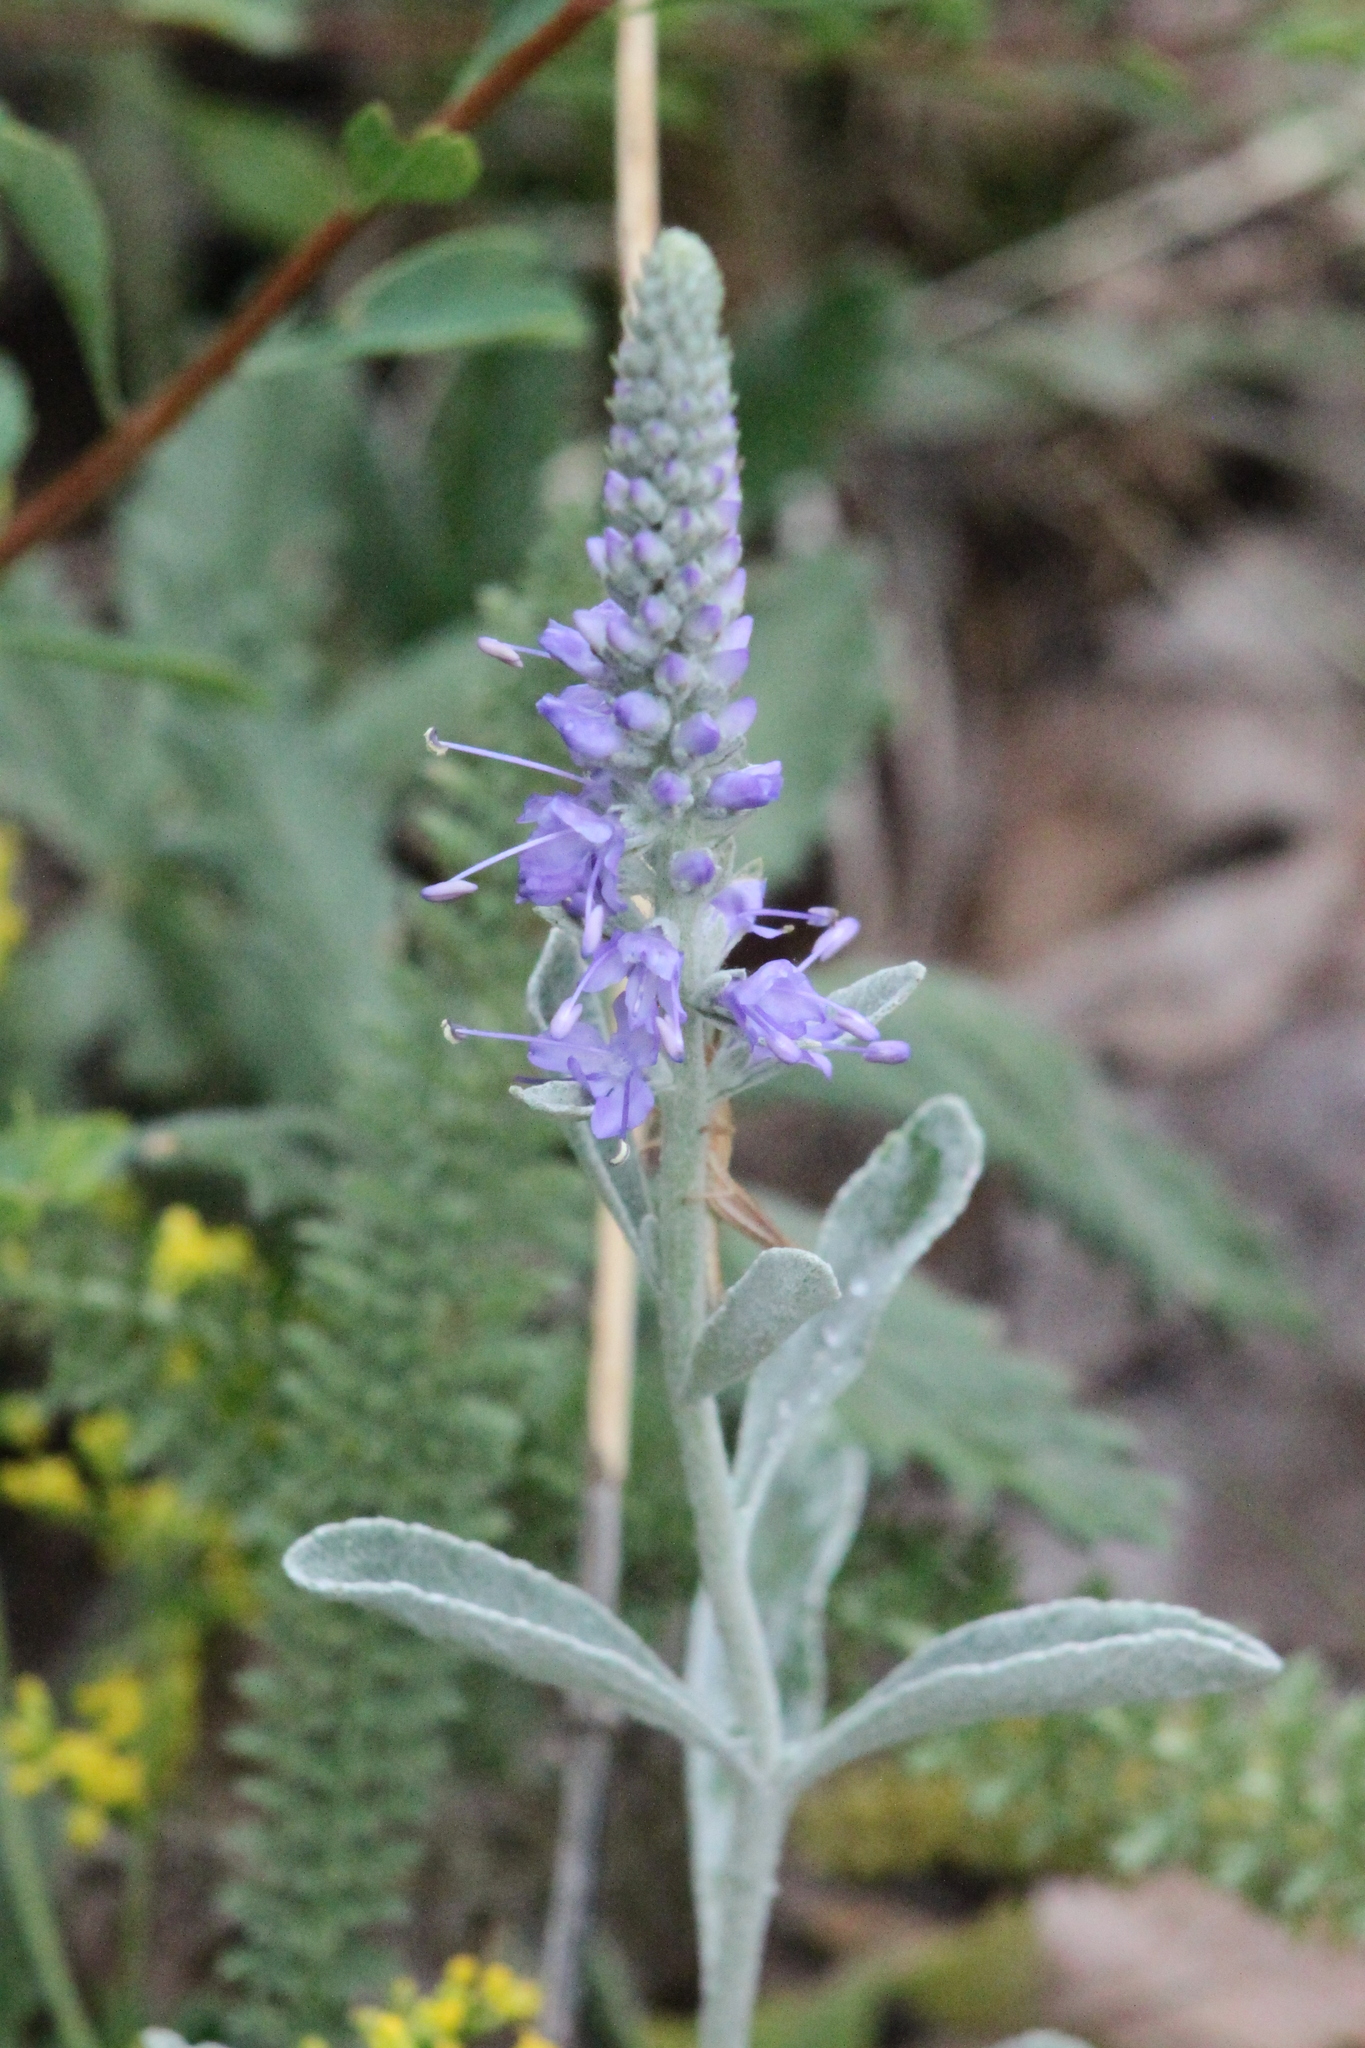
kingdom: Plantae
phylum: Tracheophyta
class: Magnoliopsida
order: Lamiales
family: Plantaginaceae
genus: Veronica
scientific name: Veronica incana
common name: Silver speedwell
